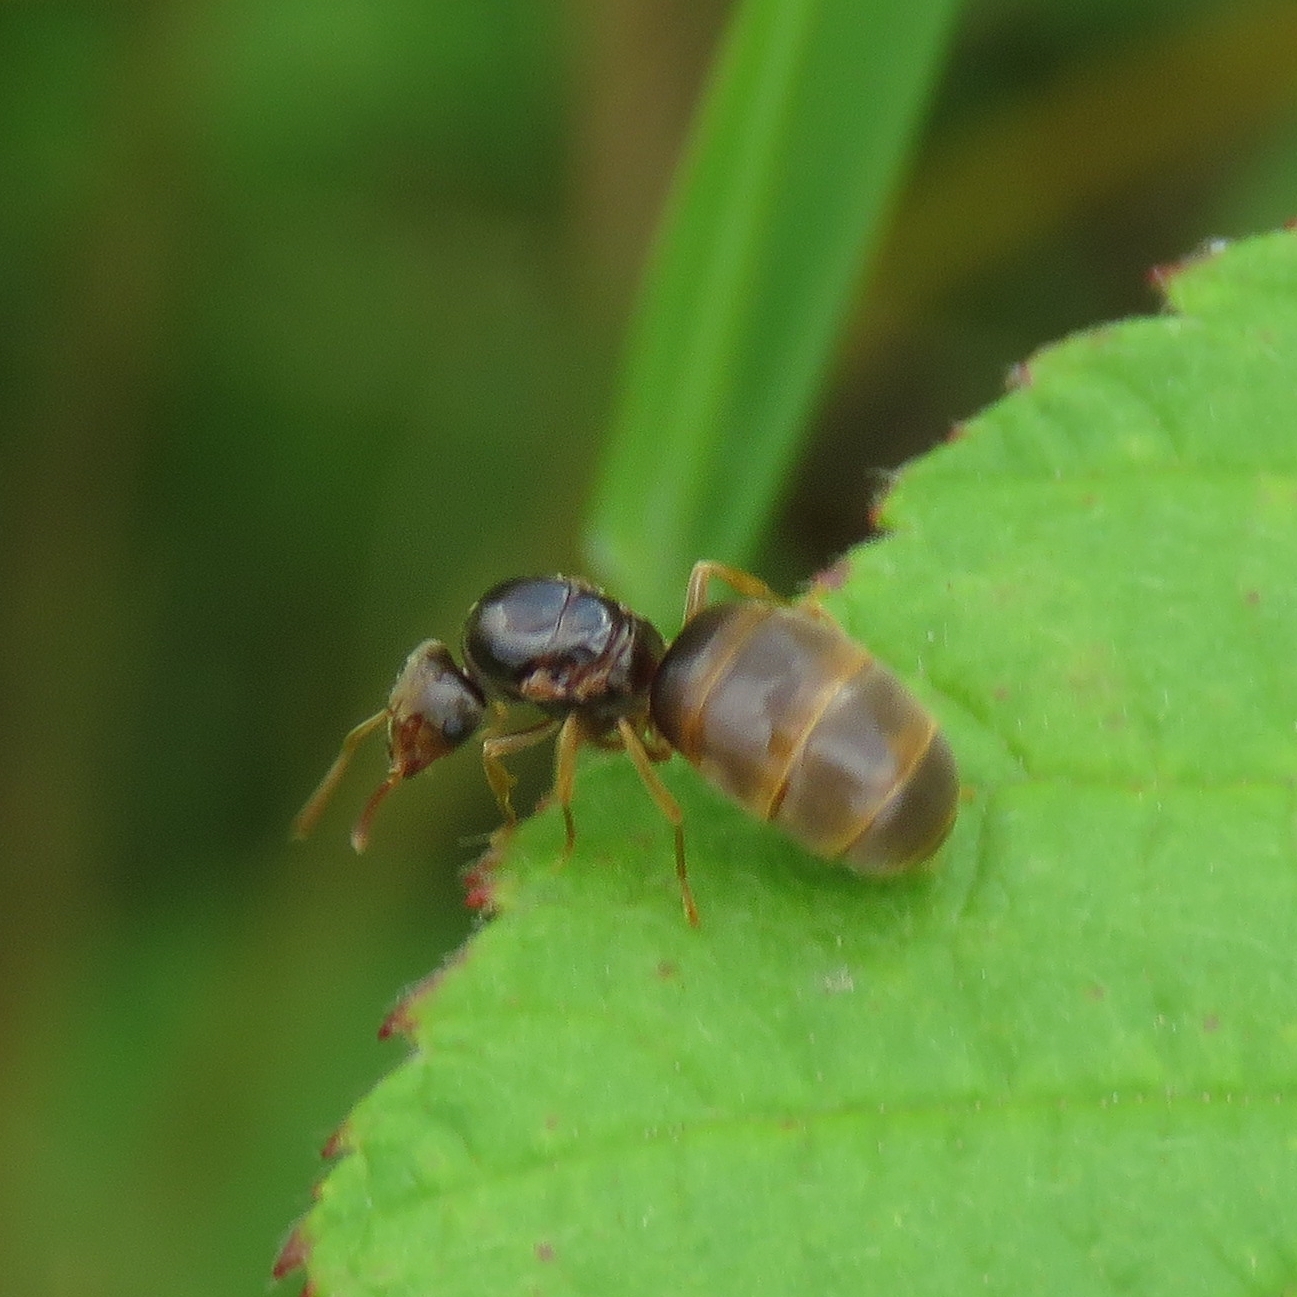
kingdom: Animalia
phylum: Arthropoda
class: Insecta
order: Hymenoptera
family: Formicidae
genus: Lasius
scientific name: Lasius flavus
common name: Blond field ant
